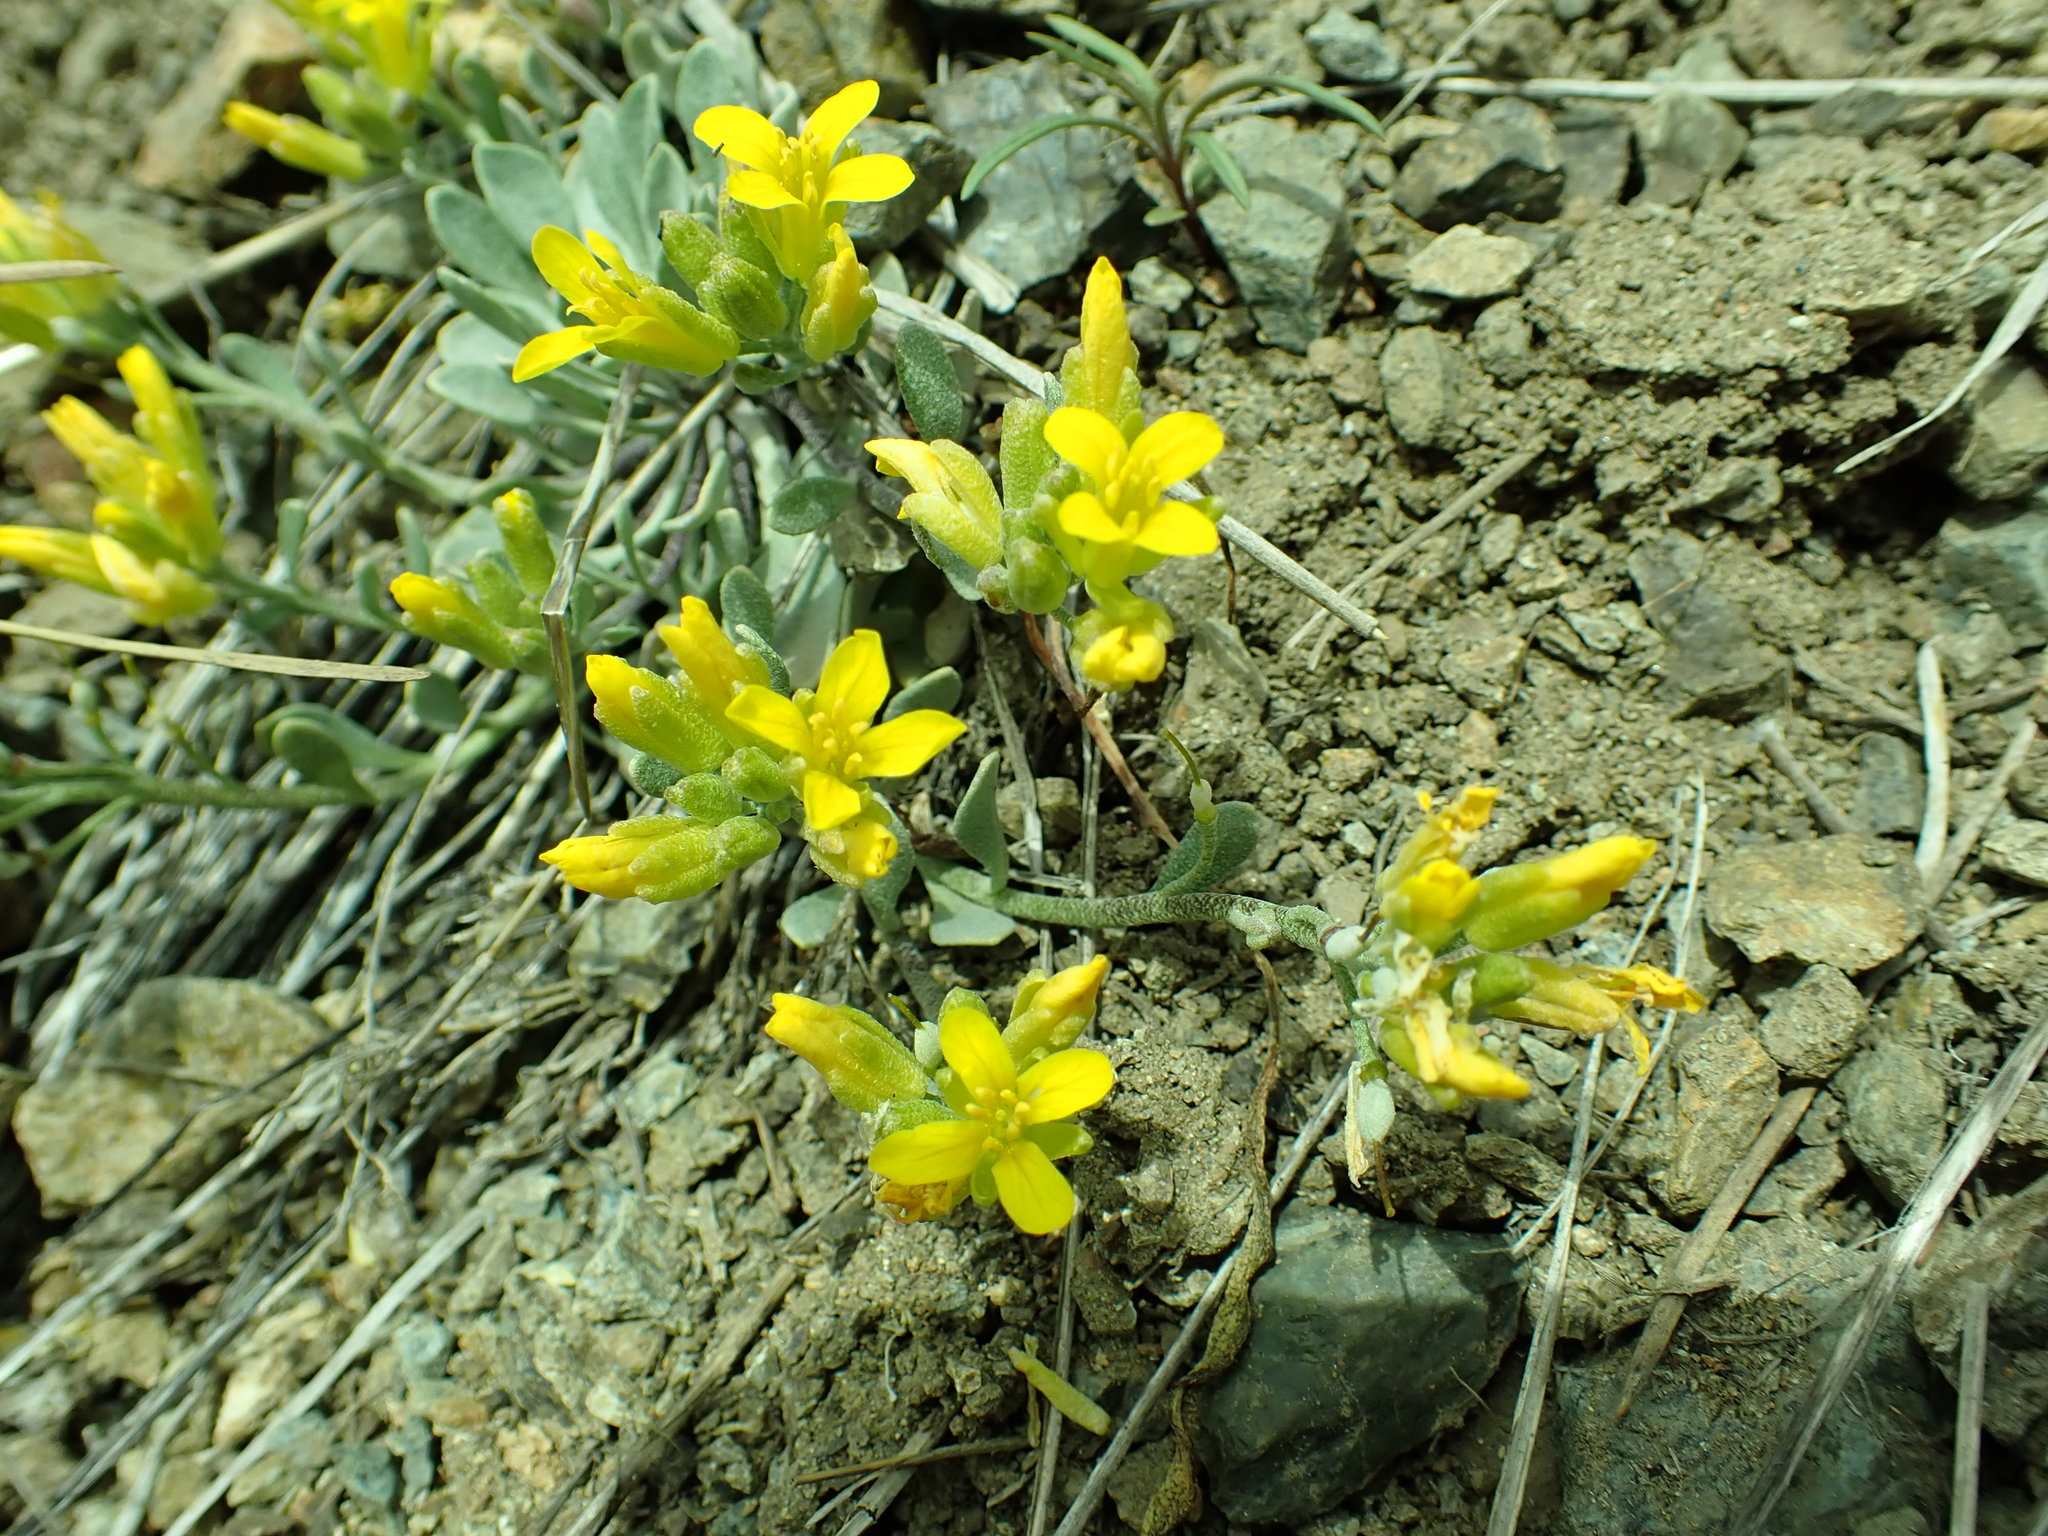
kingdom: Plantae
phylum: Tracheophyta
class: Magnoliopsida
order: Brassicales
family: Brassicaceae
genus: Physaria
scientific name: Physaria alpestris
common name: Washington twinpod
